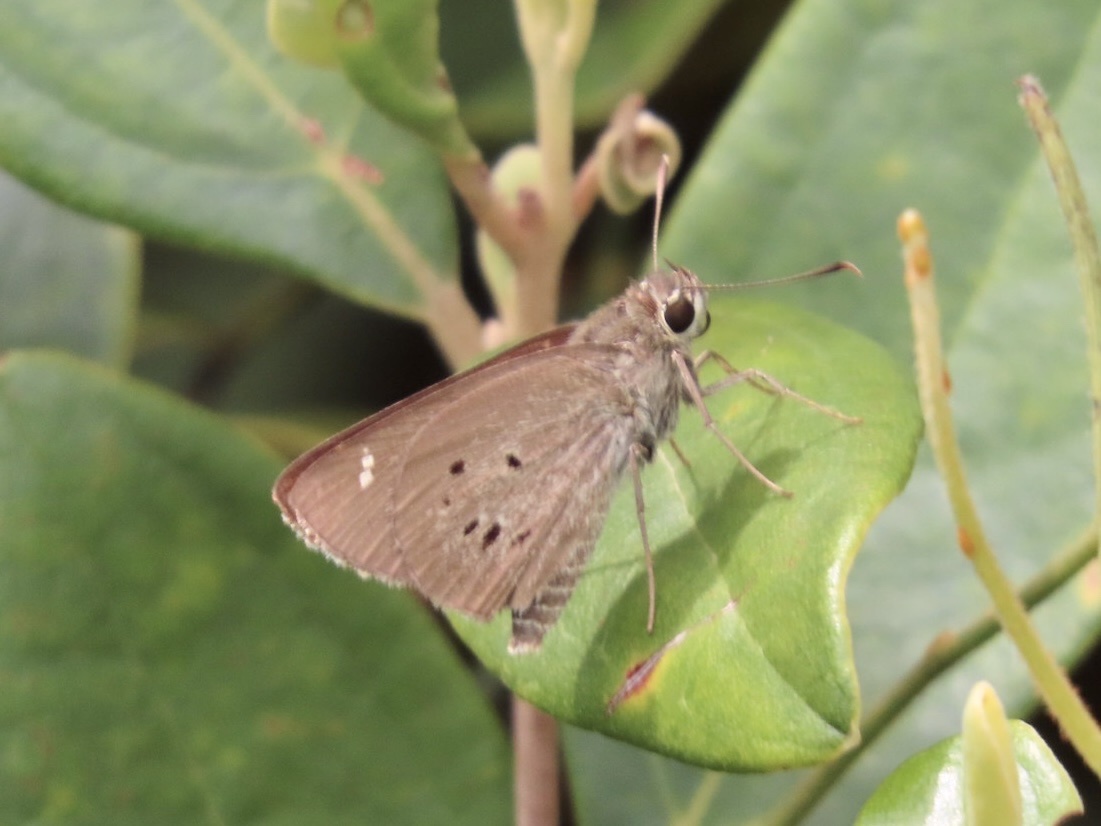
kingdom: Animalia
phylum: Arthropoda
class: Insecta
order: Lepidoptera
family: Hesperiidae
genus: Suastus
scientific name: Suastus gremius
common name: Indian palm bob
